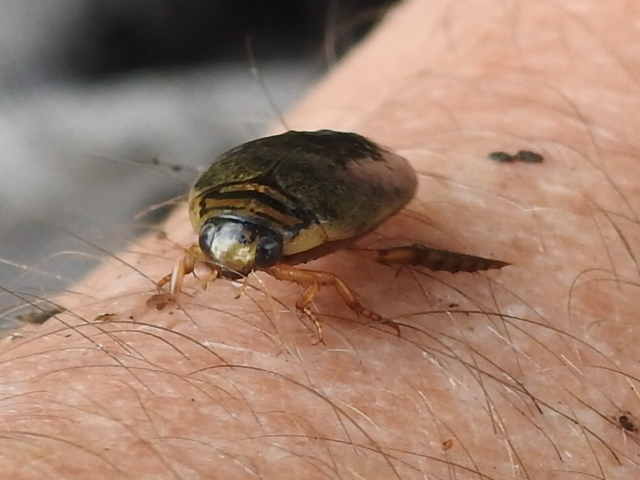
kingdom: Animalia
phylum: Arthropoda
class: Insecta
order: Coleoptera
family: Dytiscidae
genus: Thermonectus
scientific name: Thermonectus nigrofasciatus
